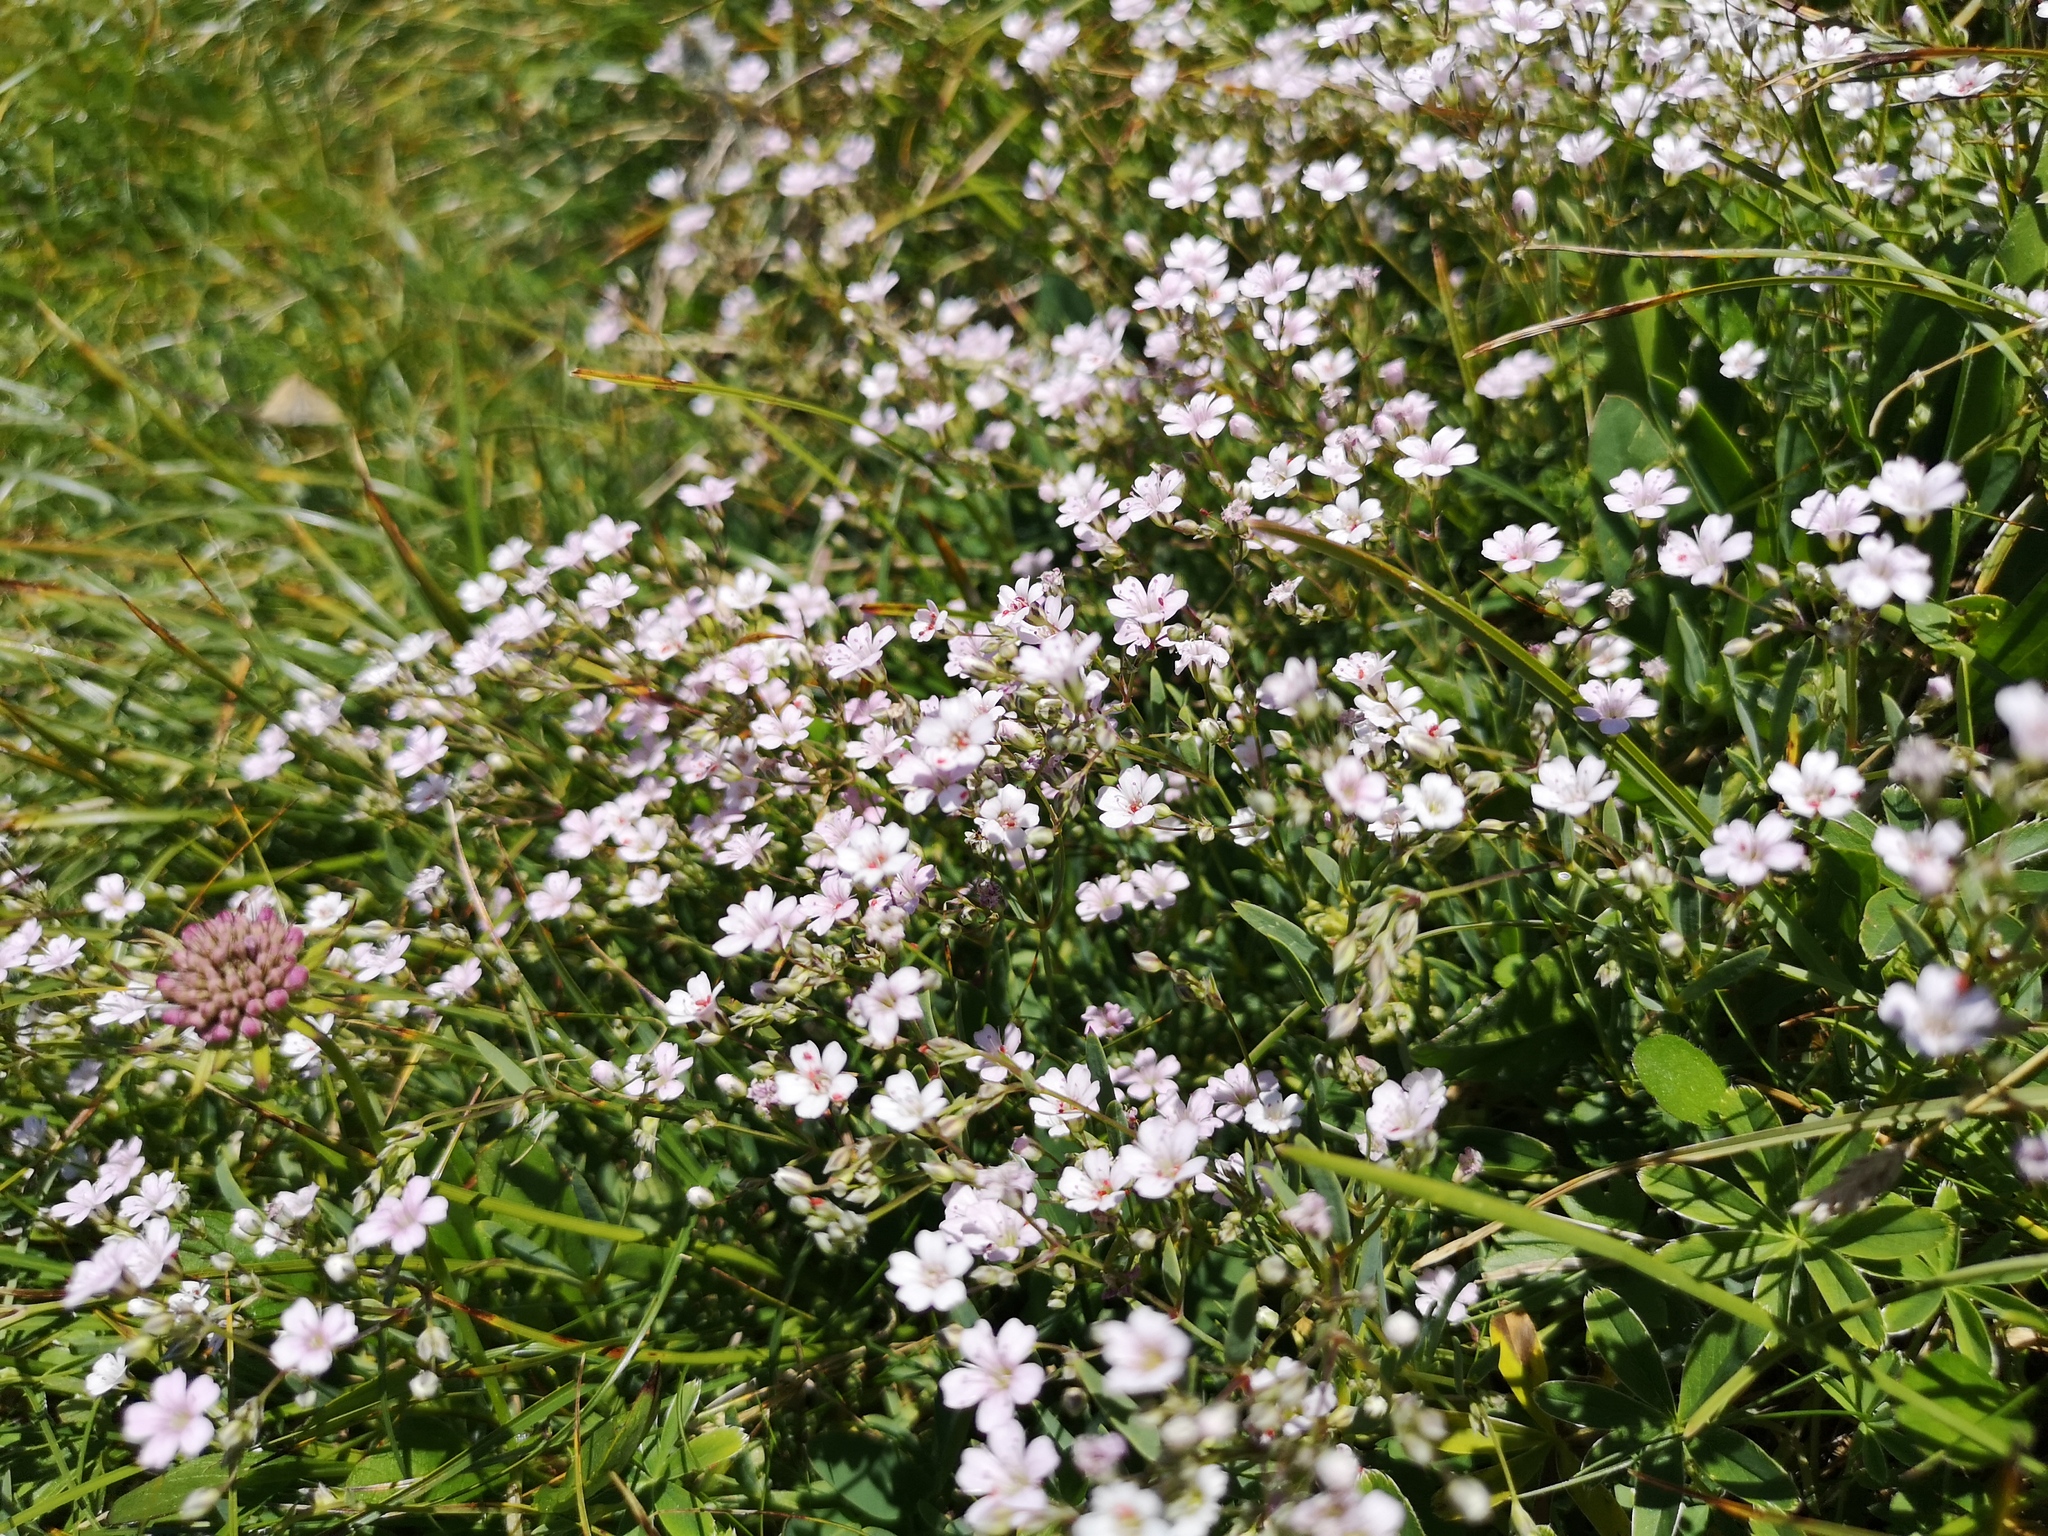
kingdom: Plantae
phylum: Tracheophyta
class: Magnoliopsida
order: Caryophyllales
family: Caryophyllaceae
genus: Gypsophila
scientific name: Gypsophila repens
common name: Creeping baby's-breath
